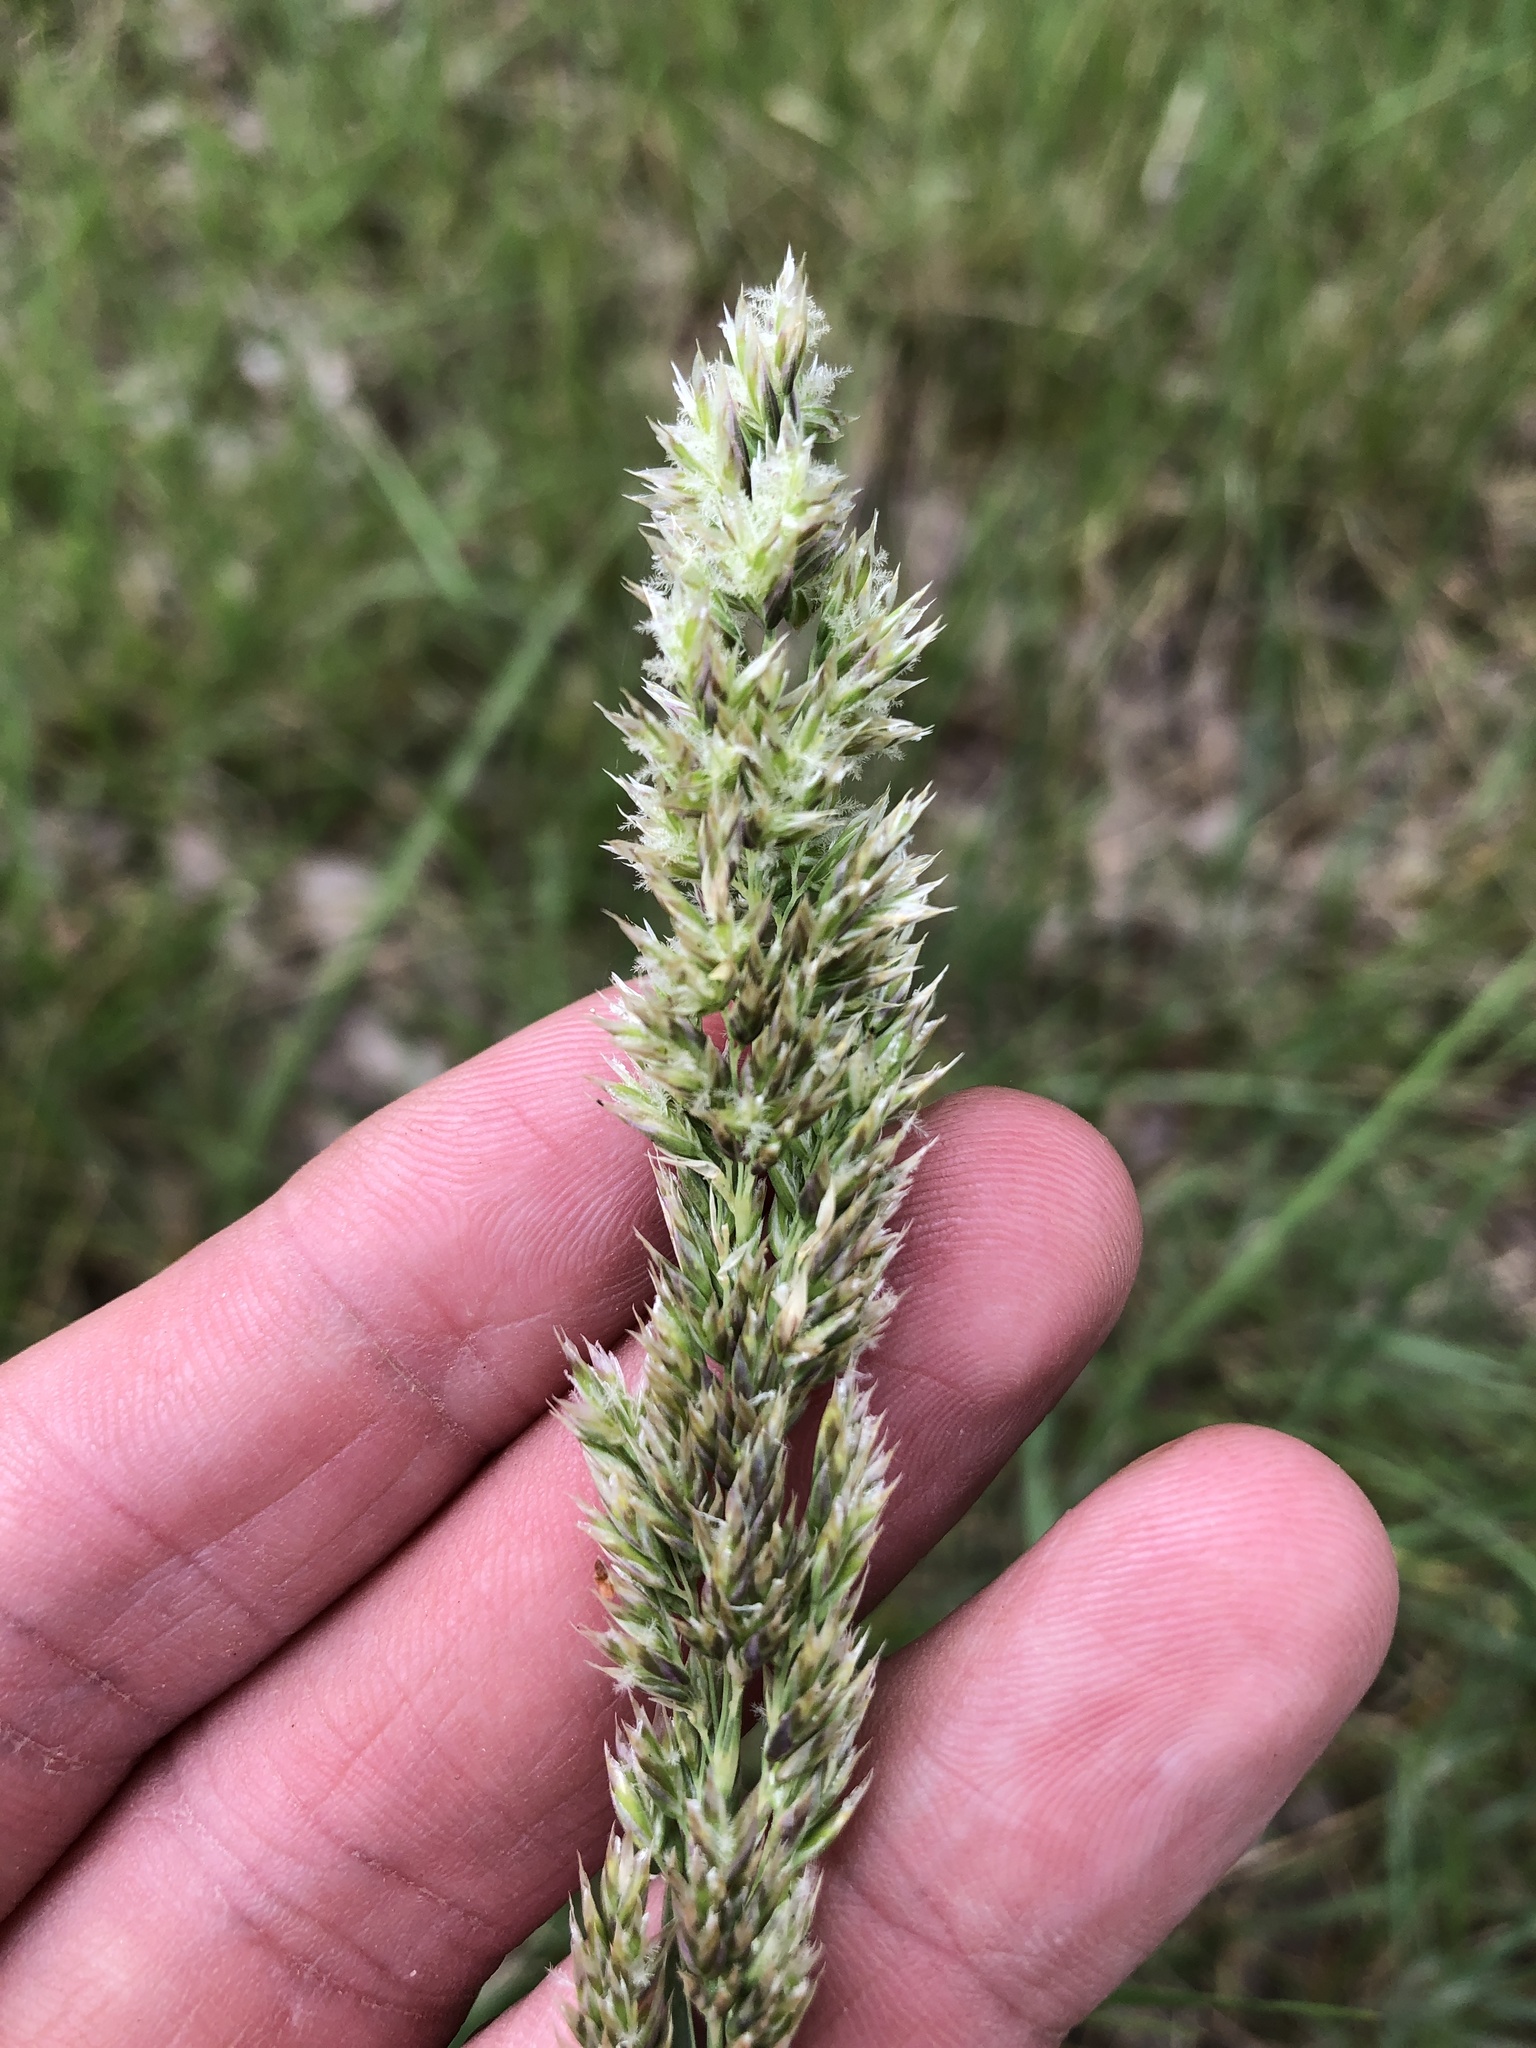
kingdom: Plantae
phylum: Tracheophyta
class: Liliopsida
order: Poales
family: Poaceae
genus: Poa
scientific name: Poa arachnifera
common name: Texas bluegrass
